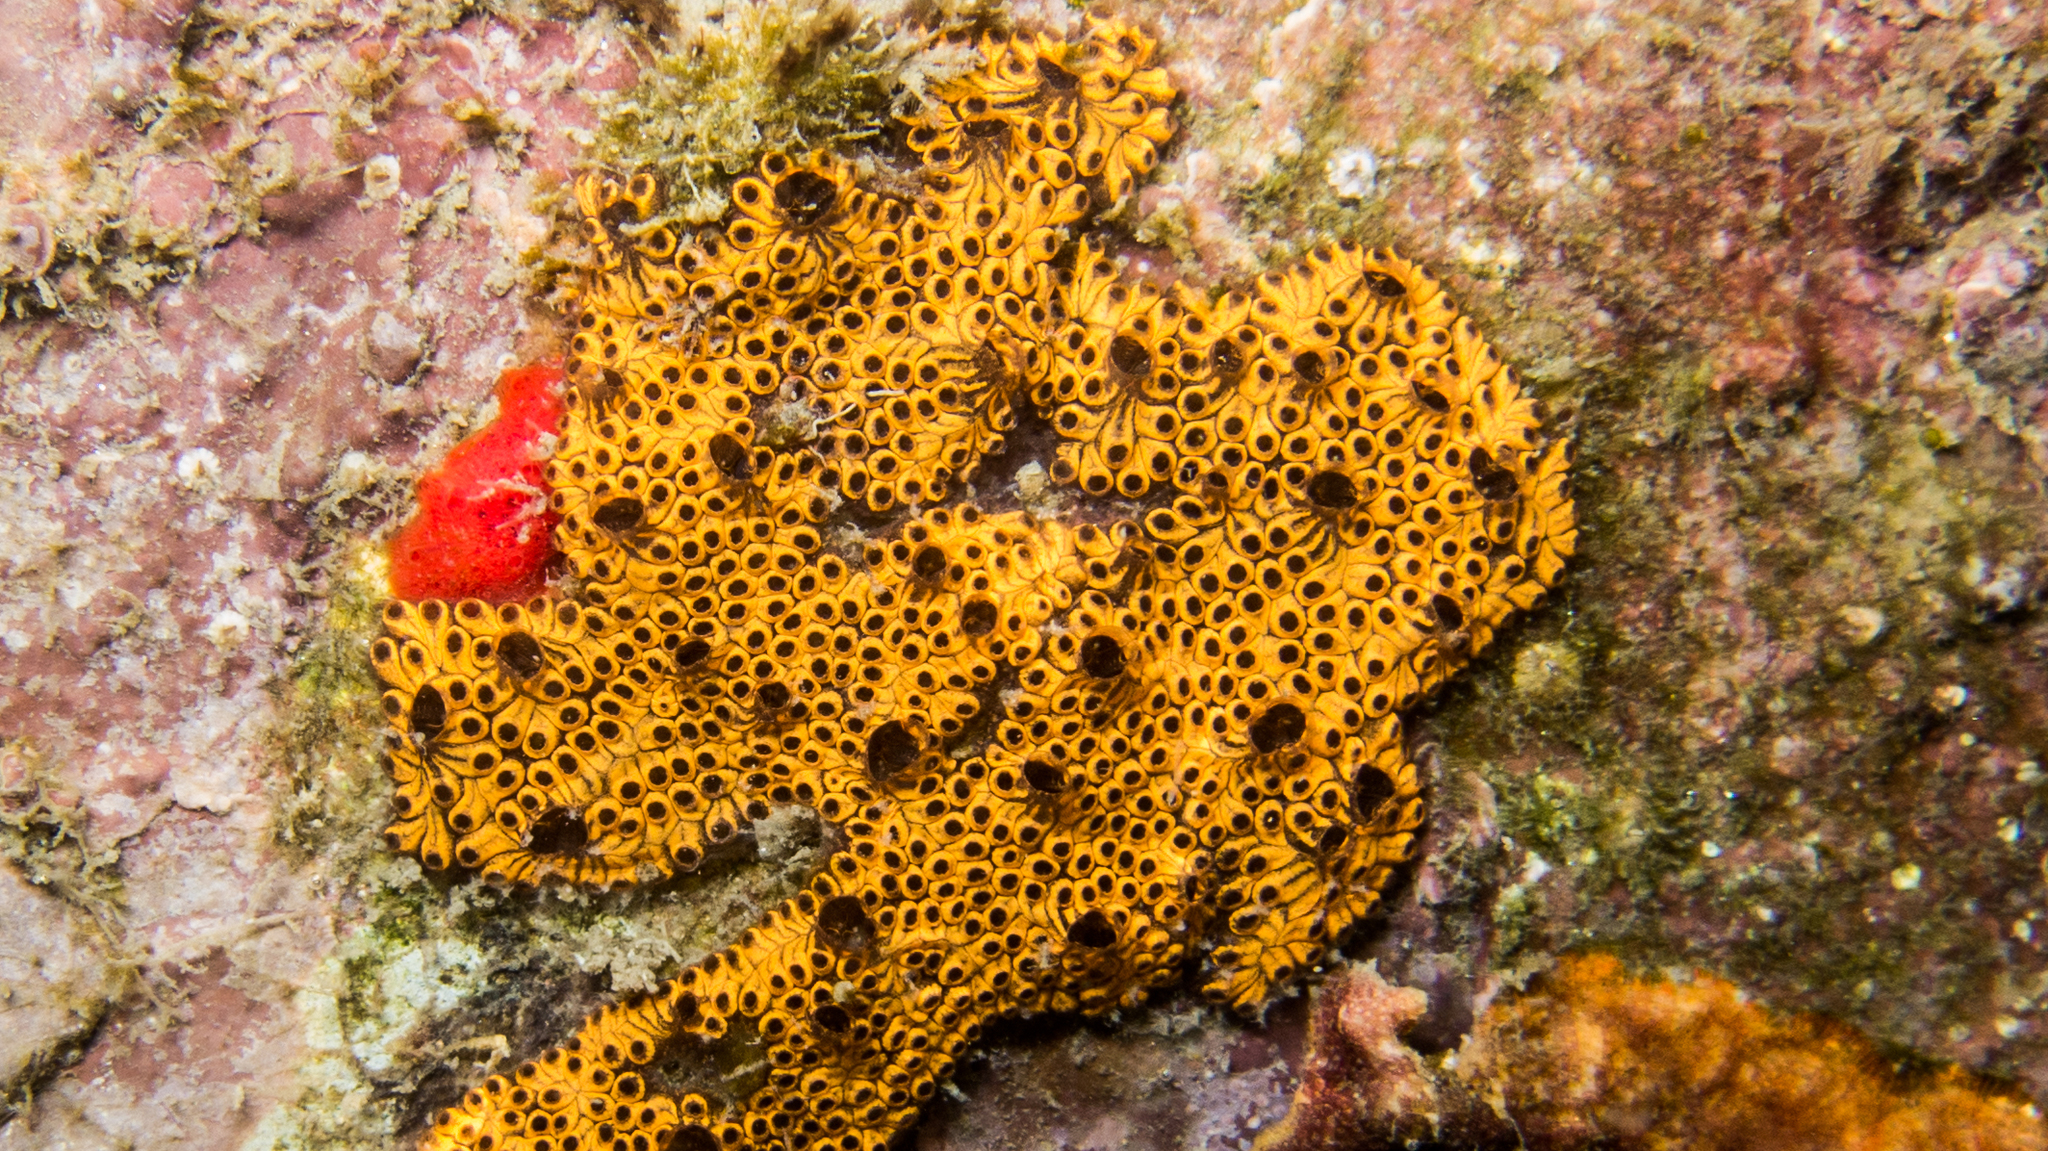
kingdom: Animalia
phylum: Chordata
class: Ascidiacea
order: Stolidobranchia
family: Styelidae
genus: Botrylloides
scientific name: Botrylloides niger
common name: Black synascidia
